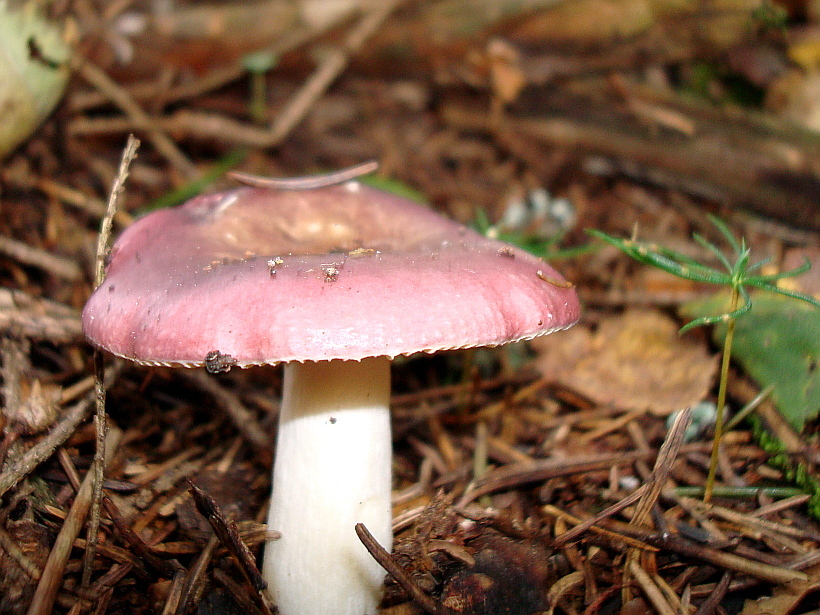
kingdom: Fungi
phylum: Basidiomycota
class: Agaricomycetes
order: Russulales
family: Russulaceae
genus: Russula
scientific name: Russula
